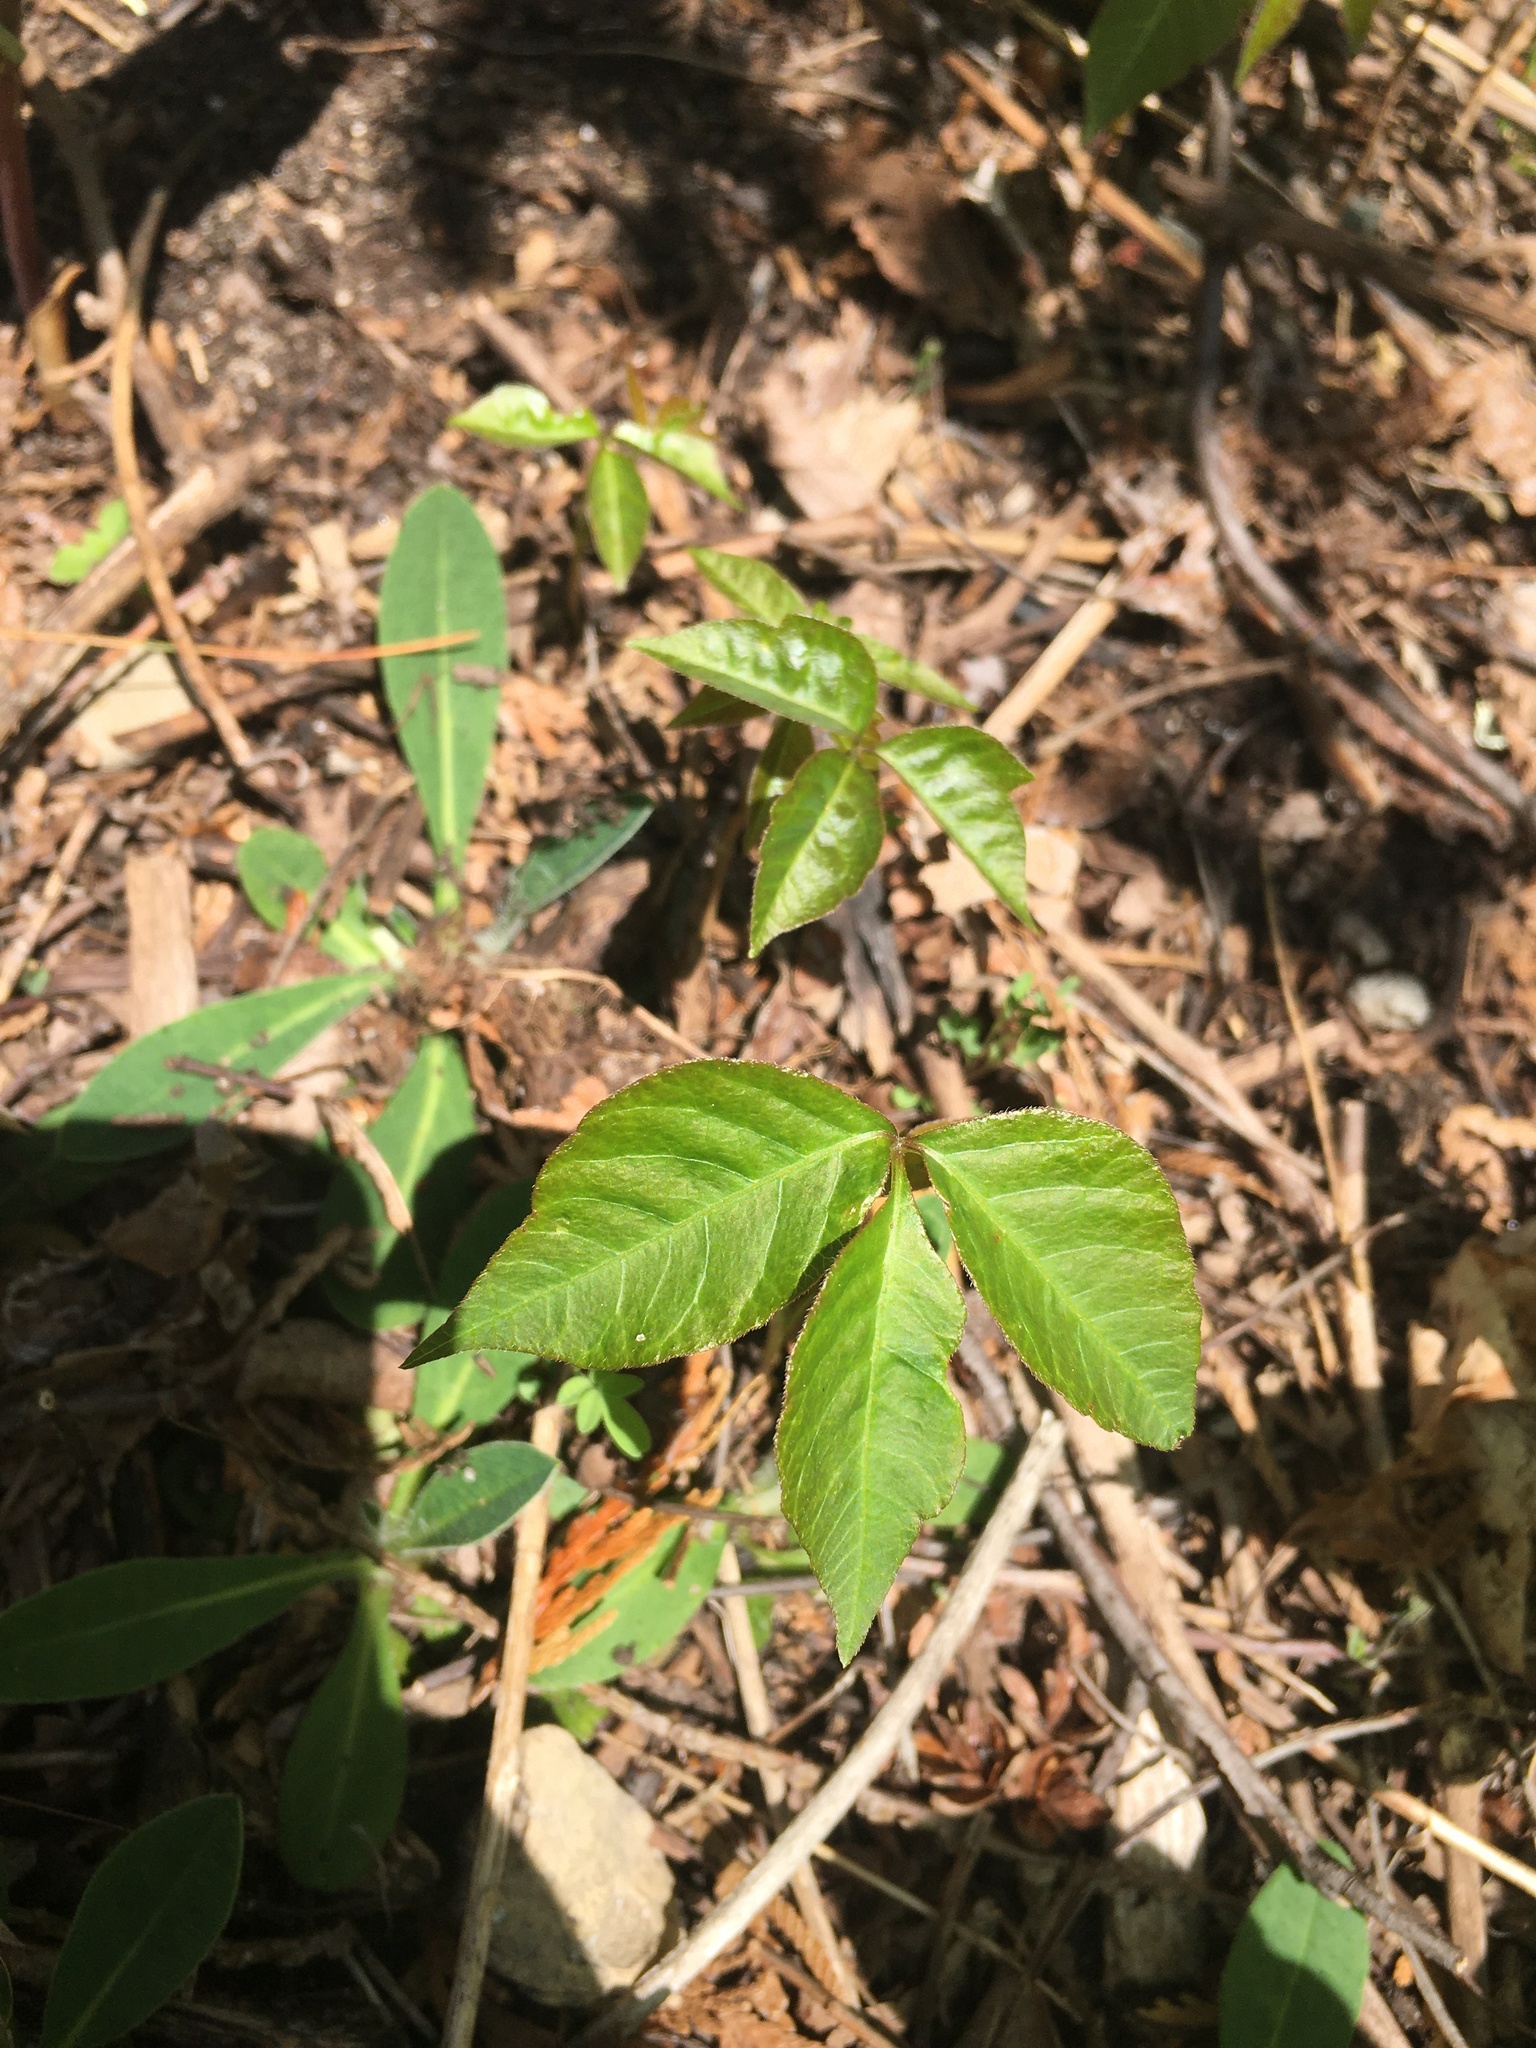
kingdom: Plantae
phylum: Tracheophyta
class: Magnoliopsida
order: Sapindales
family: Anacardiaceae
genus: Toxicodendron
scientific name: Toxicodendron radicans
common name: Poison ivy
